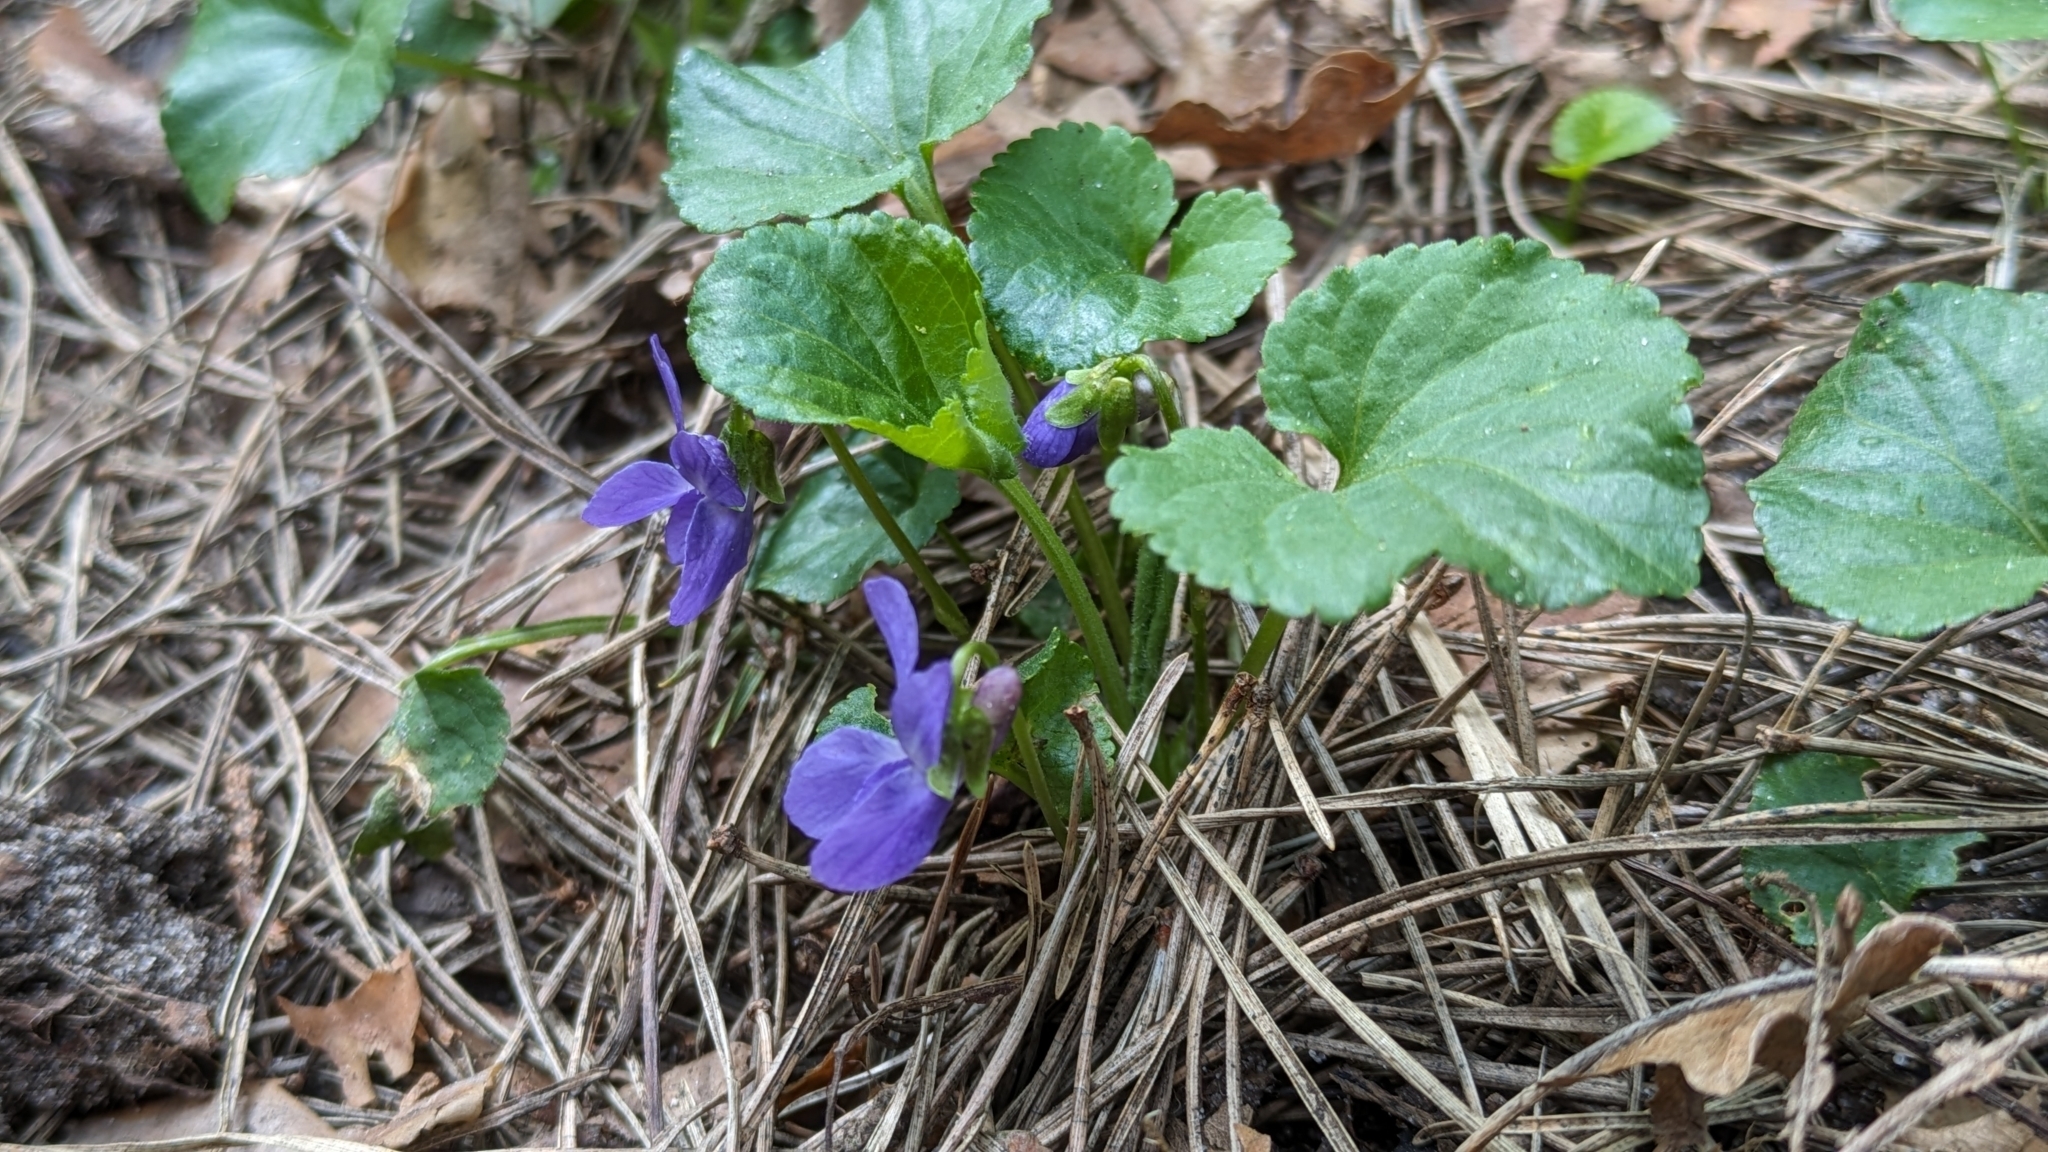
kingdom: Plantae
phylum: Tracheophyta
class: Magnoliopsida
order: Malpighiales
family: Violaceae
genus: Viola
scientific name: Viola odorata
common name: Sweet violet
